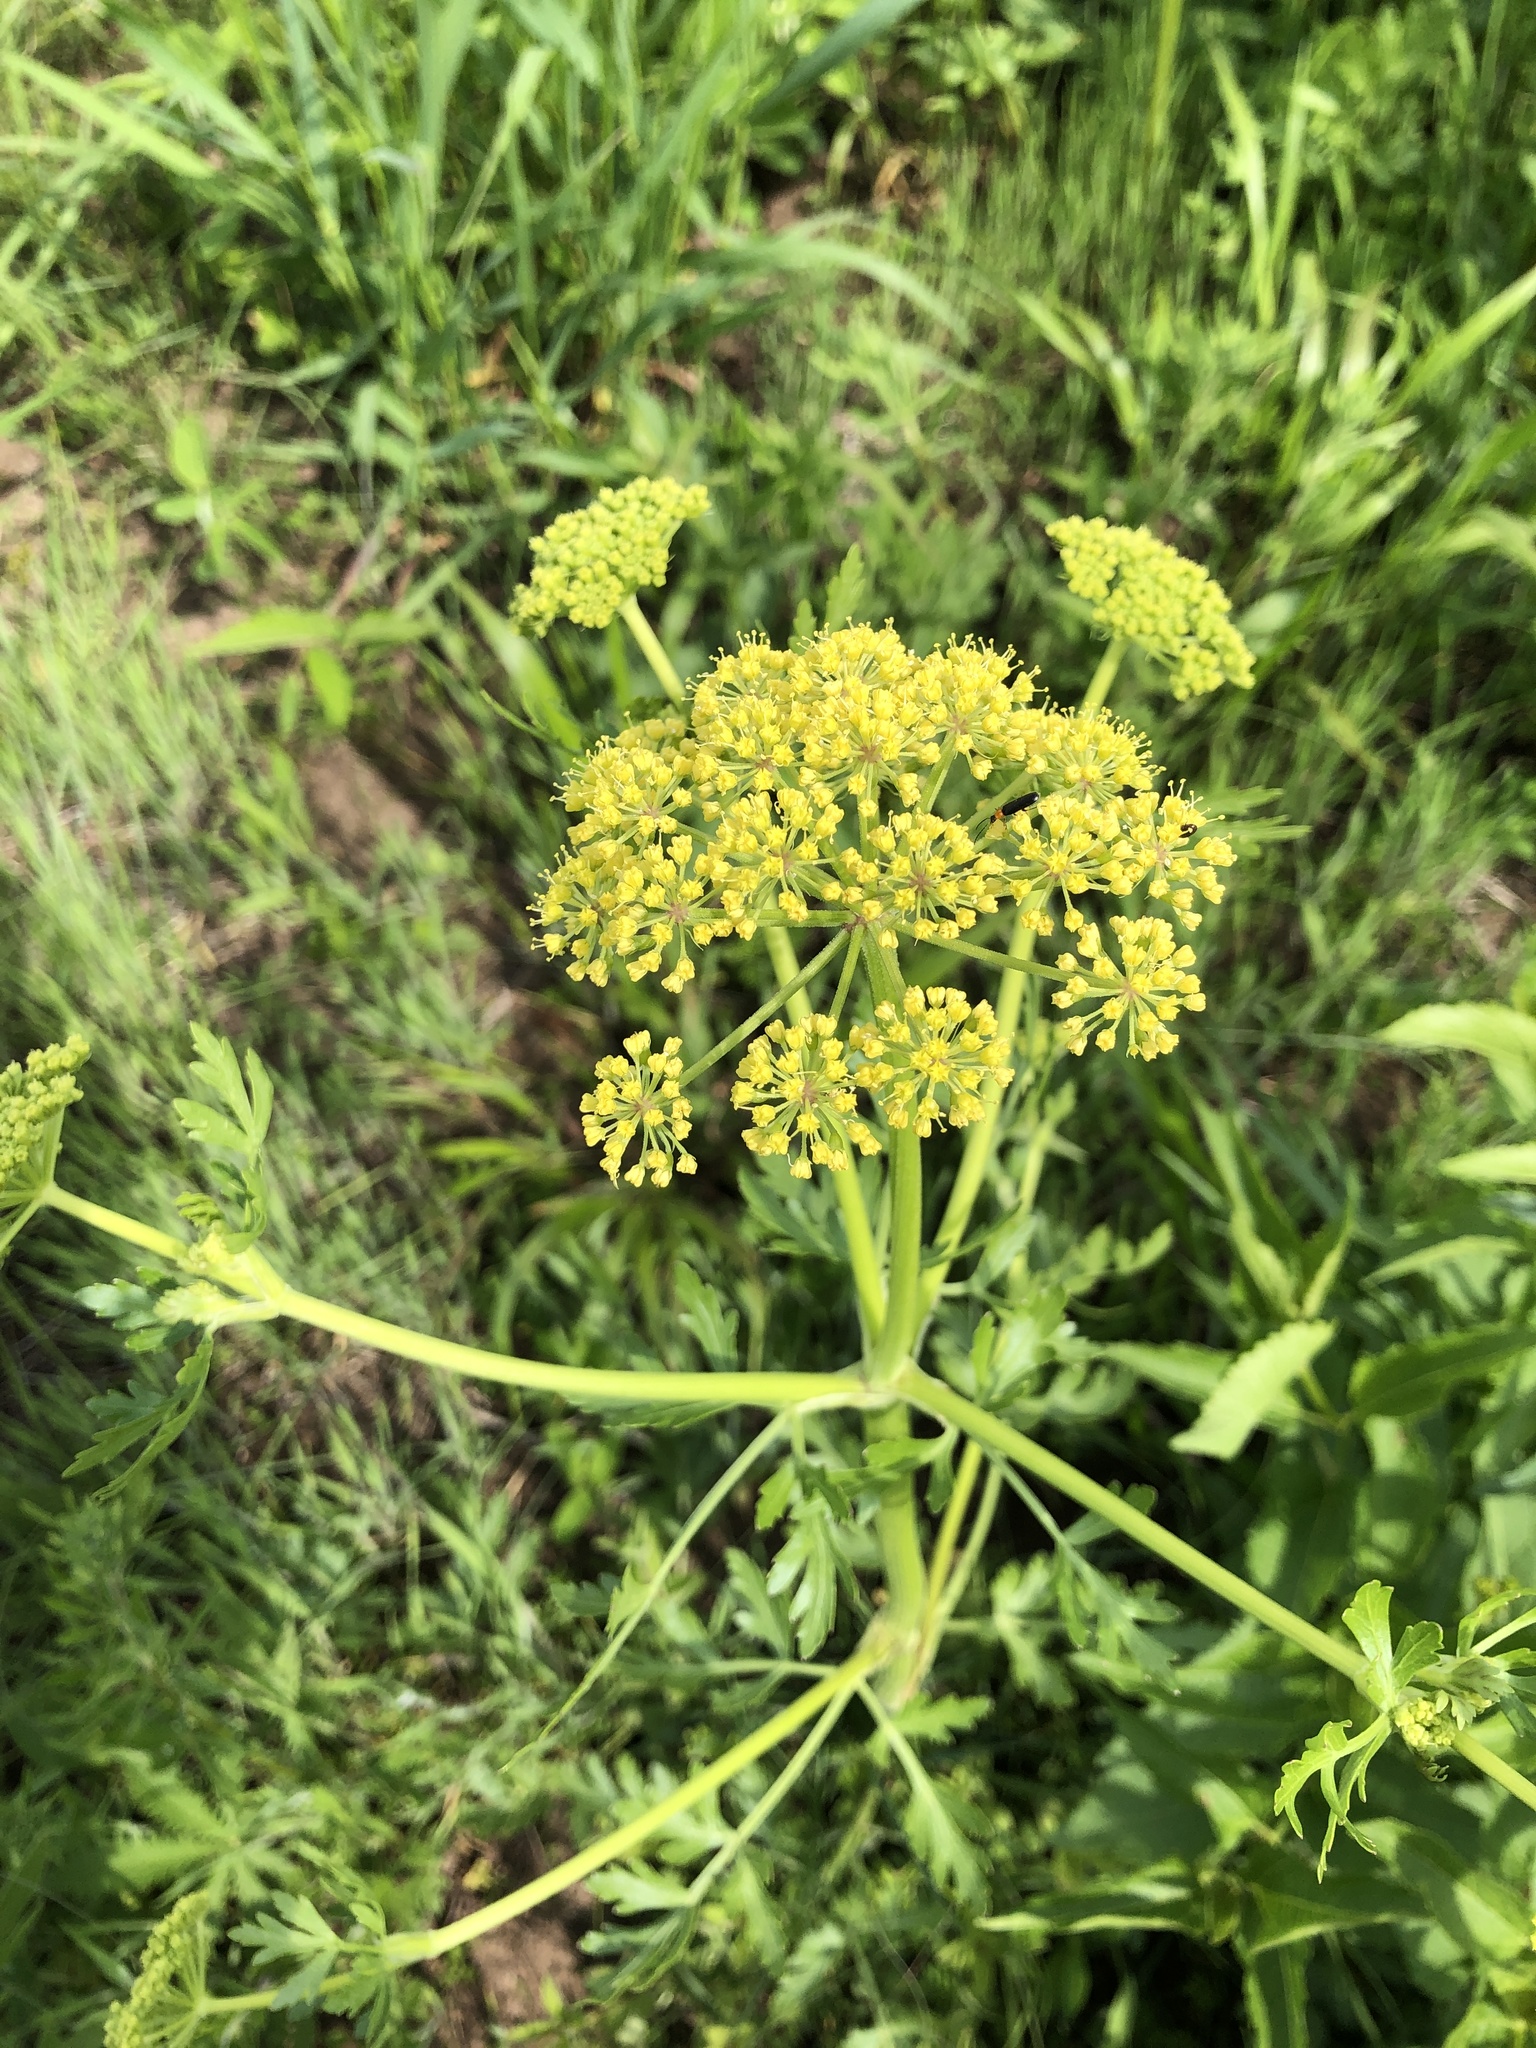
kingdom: Plantae
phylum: Tracheophyta
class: Magnoliopsida
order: Apiales
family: Apiaceae
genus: Polytaenia
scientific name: Polytaenia nuttallii
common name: Prairie-parsley
